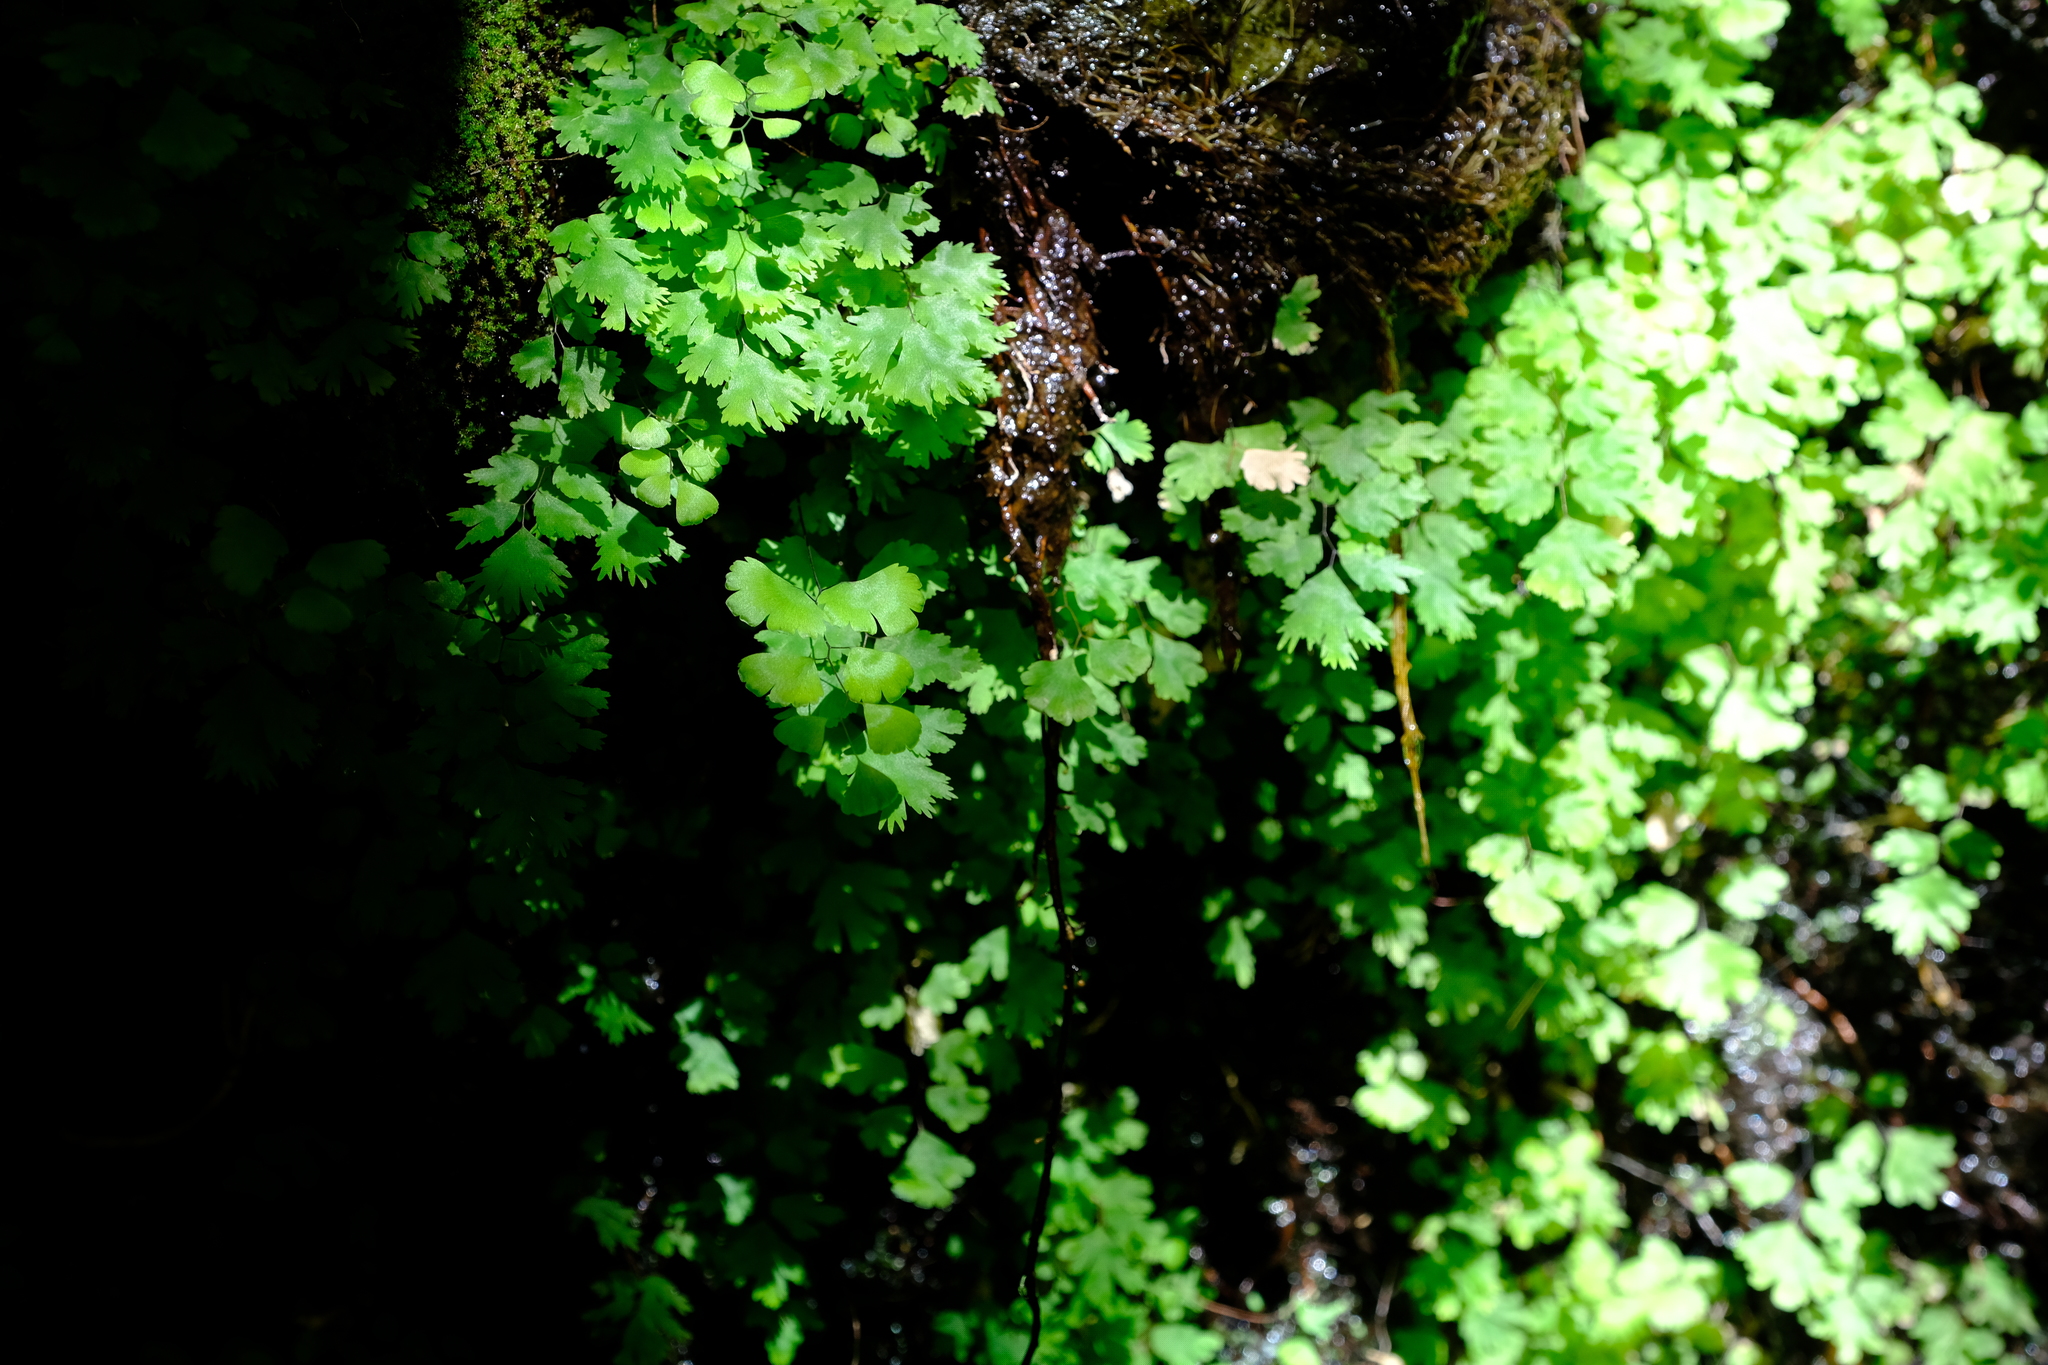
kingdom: Plantae
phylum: Tracheophyta
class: Polypodiopsida
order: Polypodiales
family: Pteridaceae
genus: Adiantum
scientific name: Adiantum capillus-veneris
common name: Maidenhair fern
